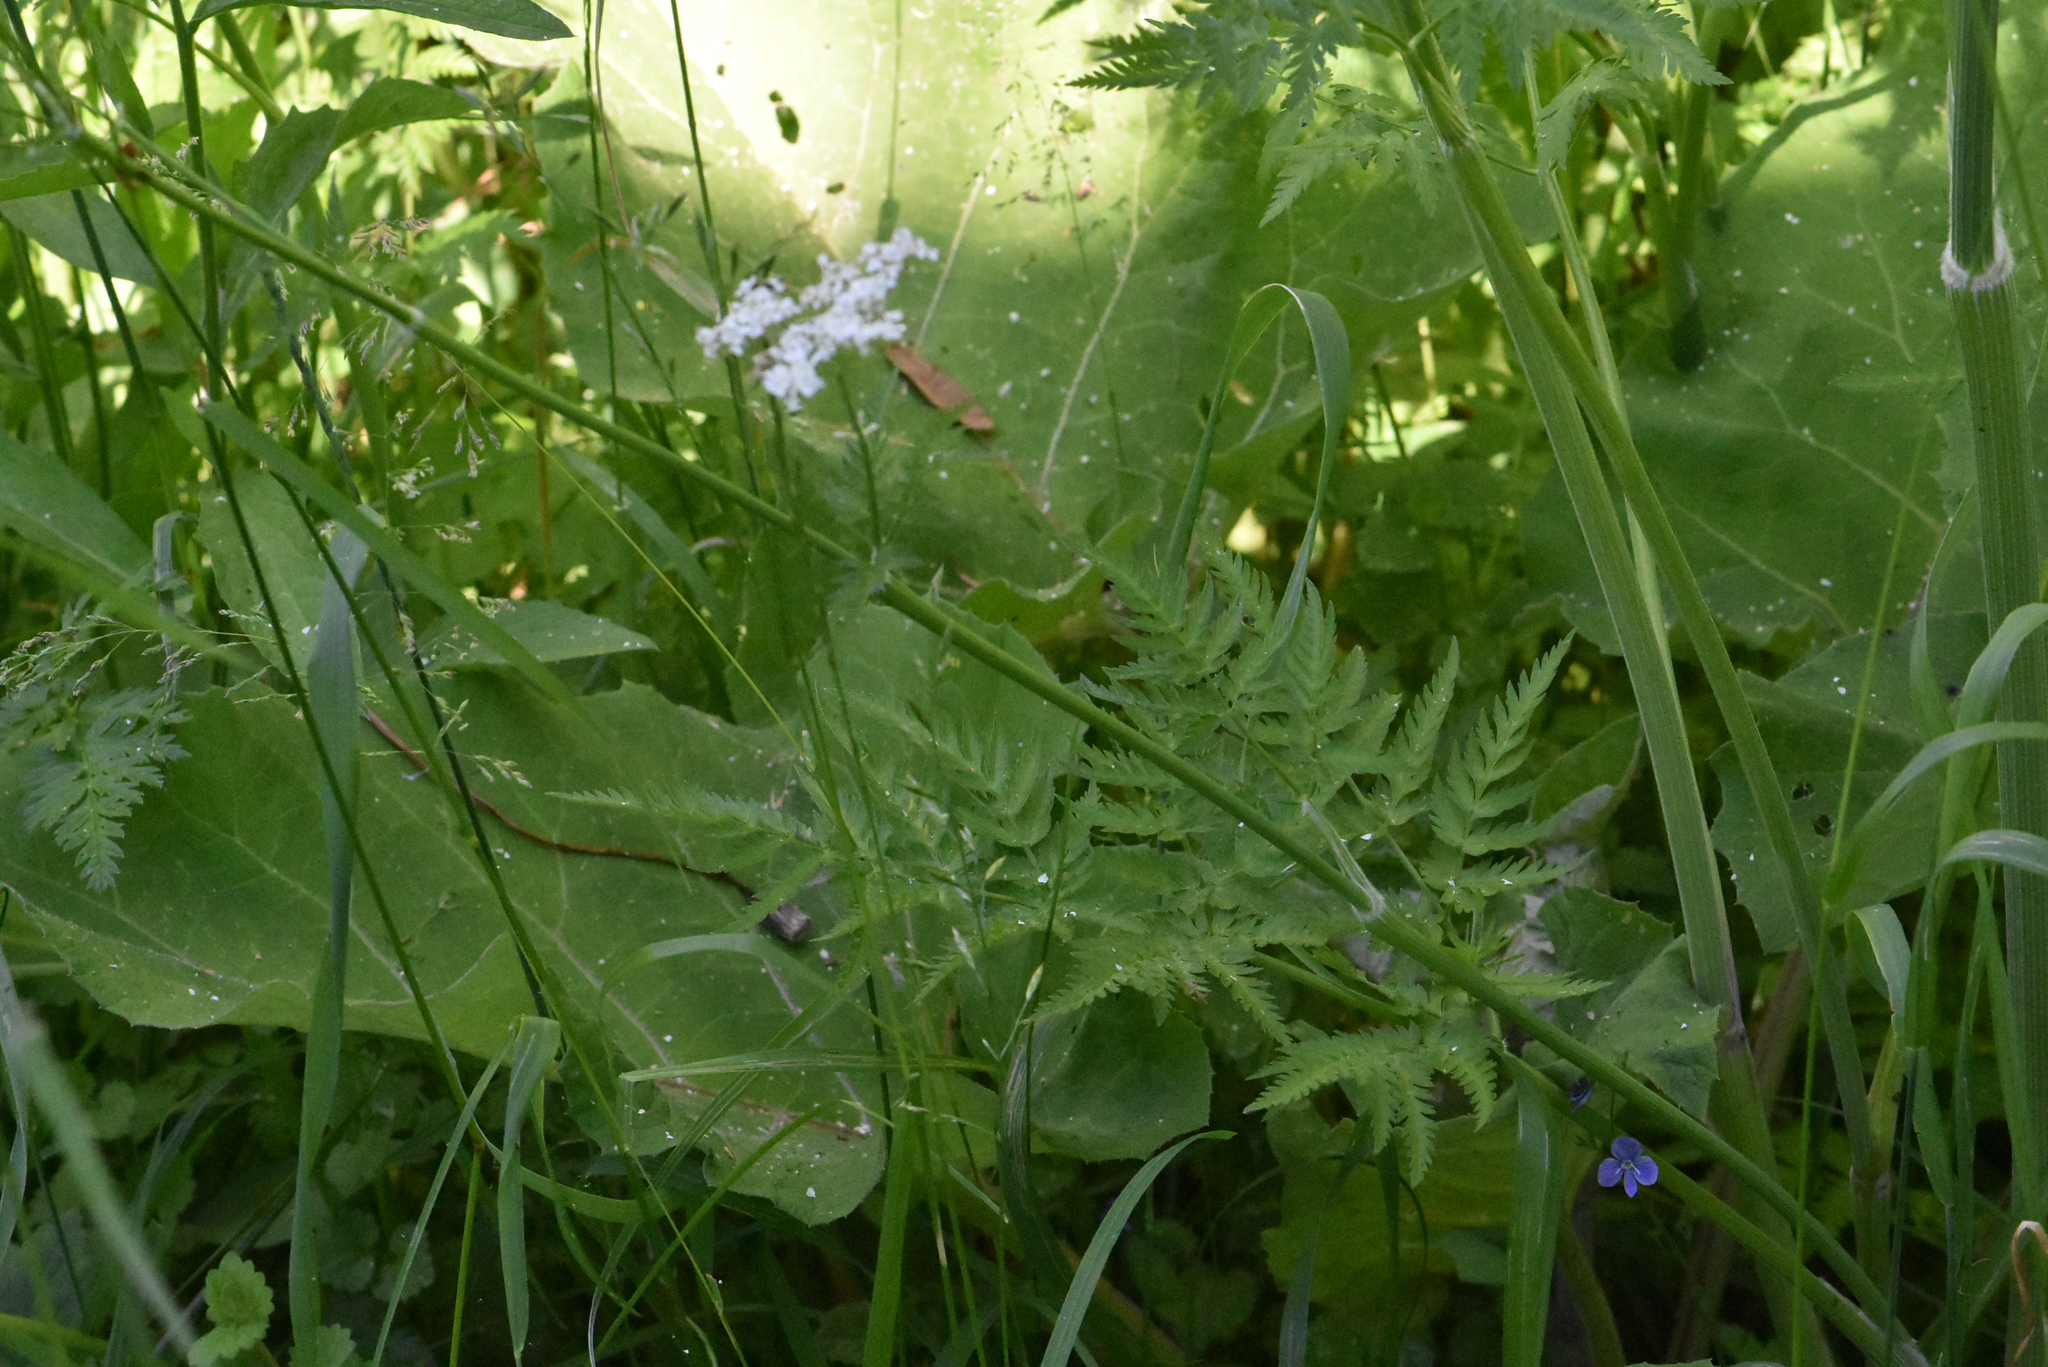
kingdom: Plantae
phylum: Tracheophyta
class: Magnoliopsida
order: Apiales
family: Apiaceae
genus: Anthriscus
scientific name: Anthriscus sylvestris
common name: Cow parsley
